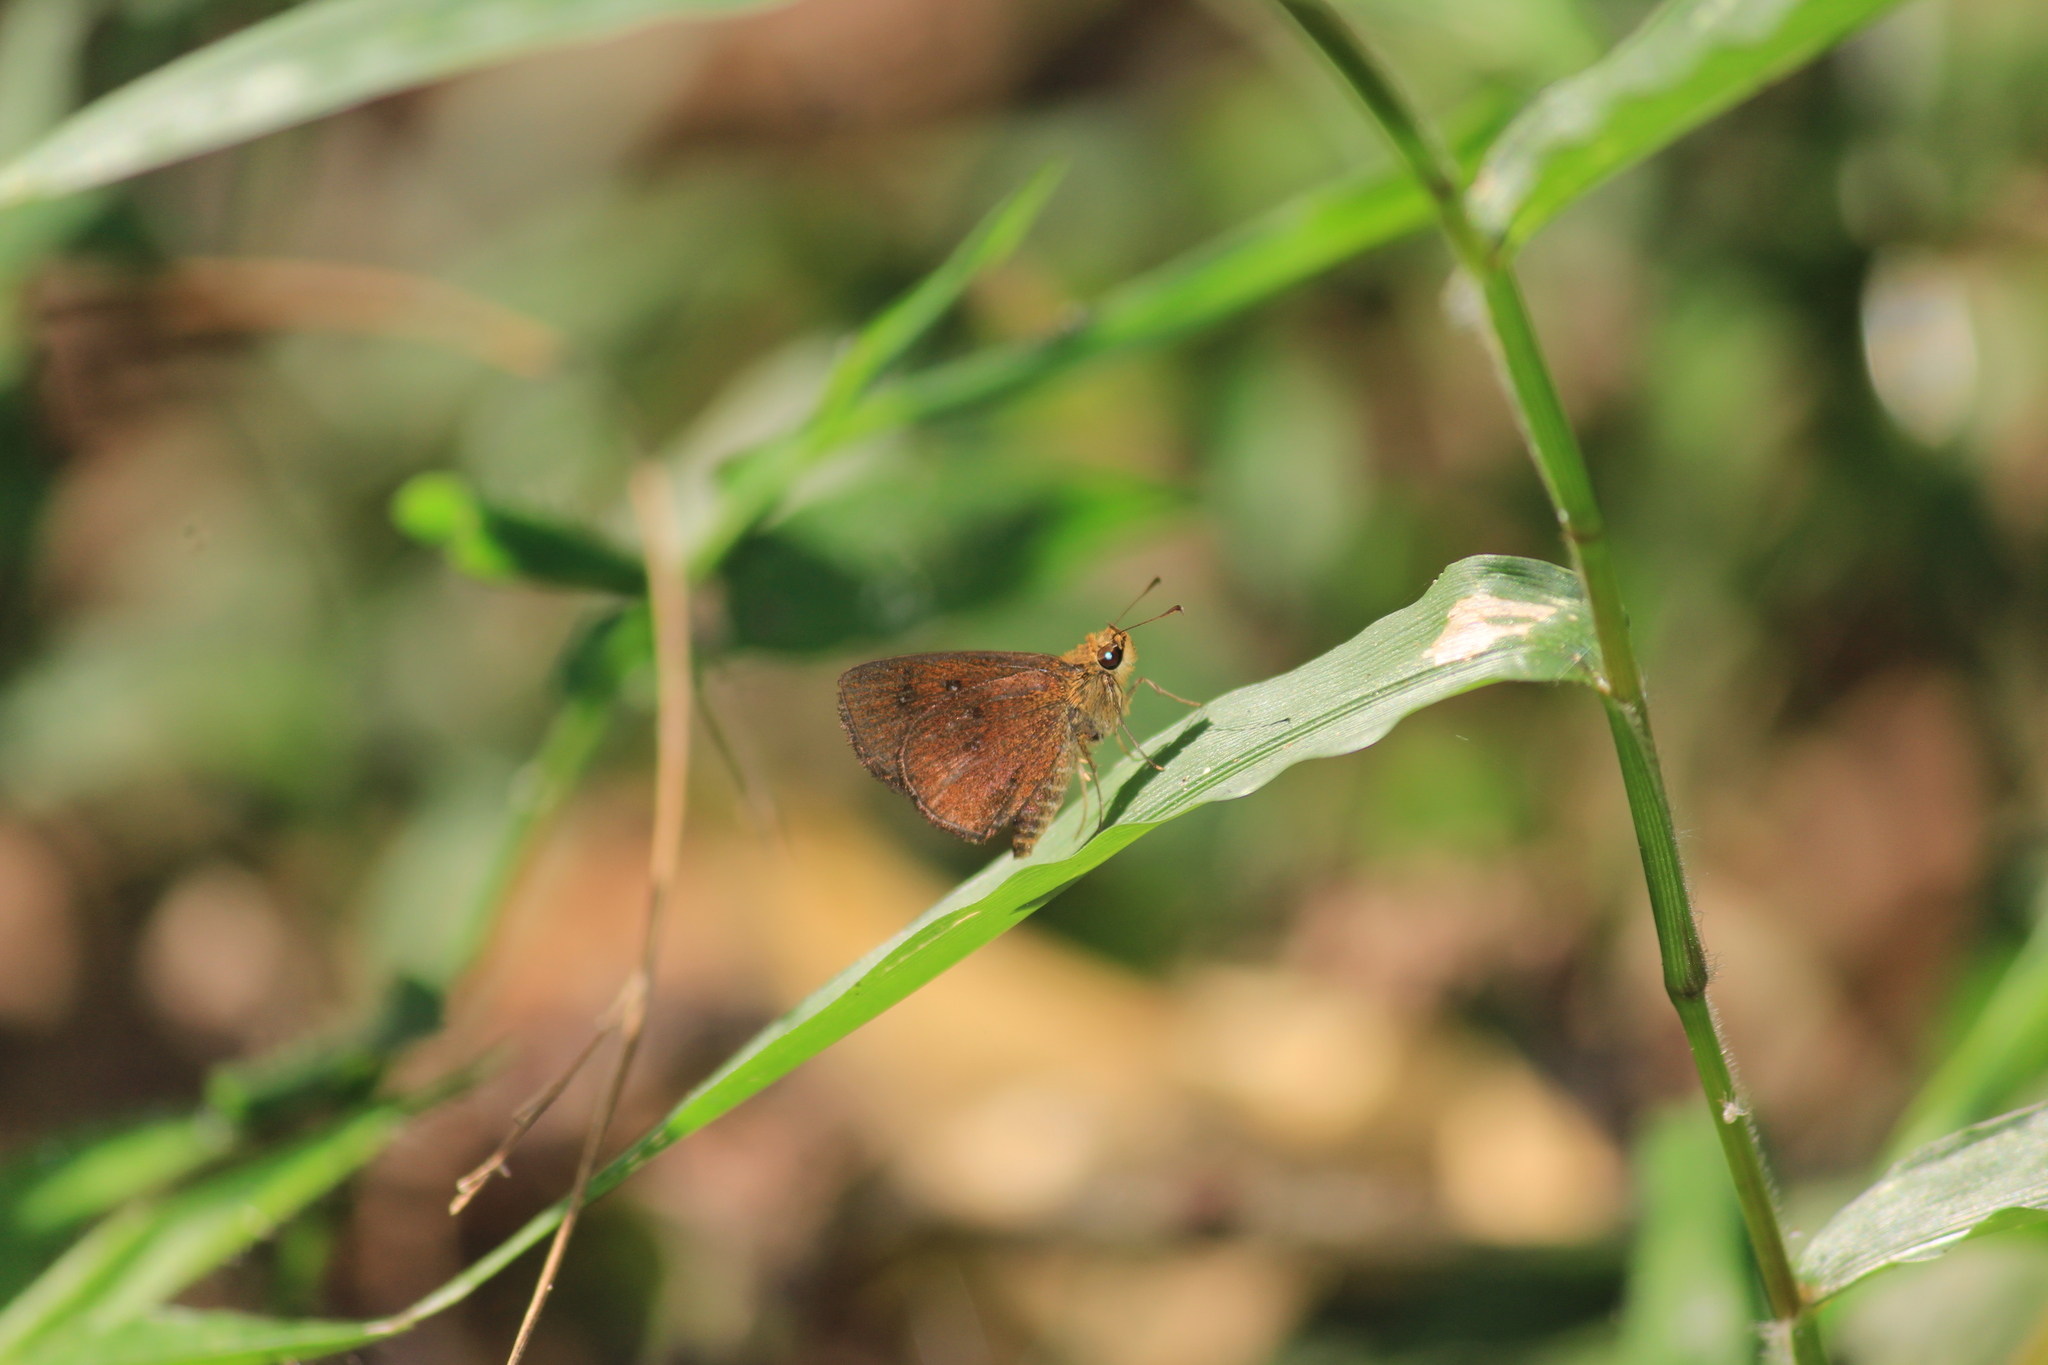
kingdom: Animalia
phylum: Arthropoda
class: Insecta
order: Lepidoptera
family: Hesperiidae
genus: Iambrix
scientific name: Iambrix salsala
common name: Chestnut bob
